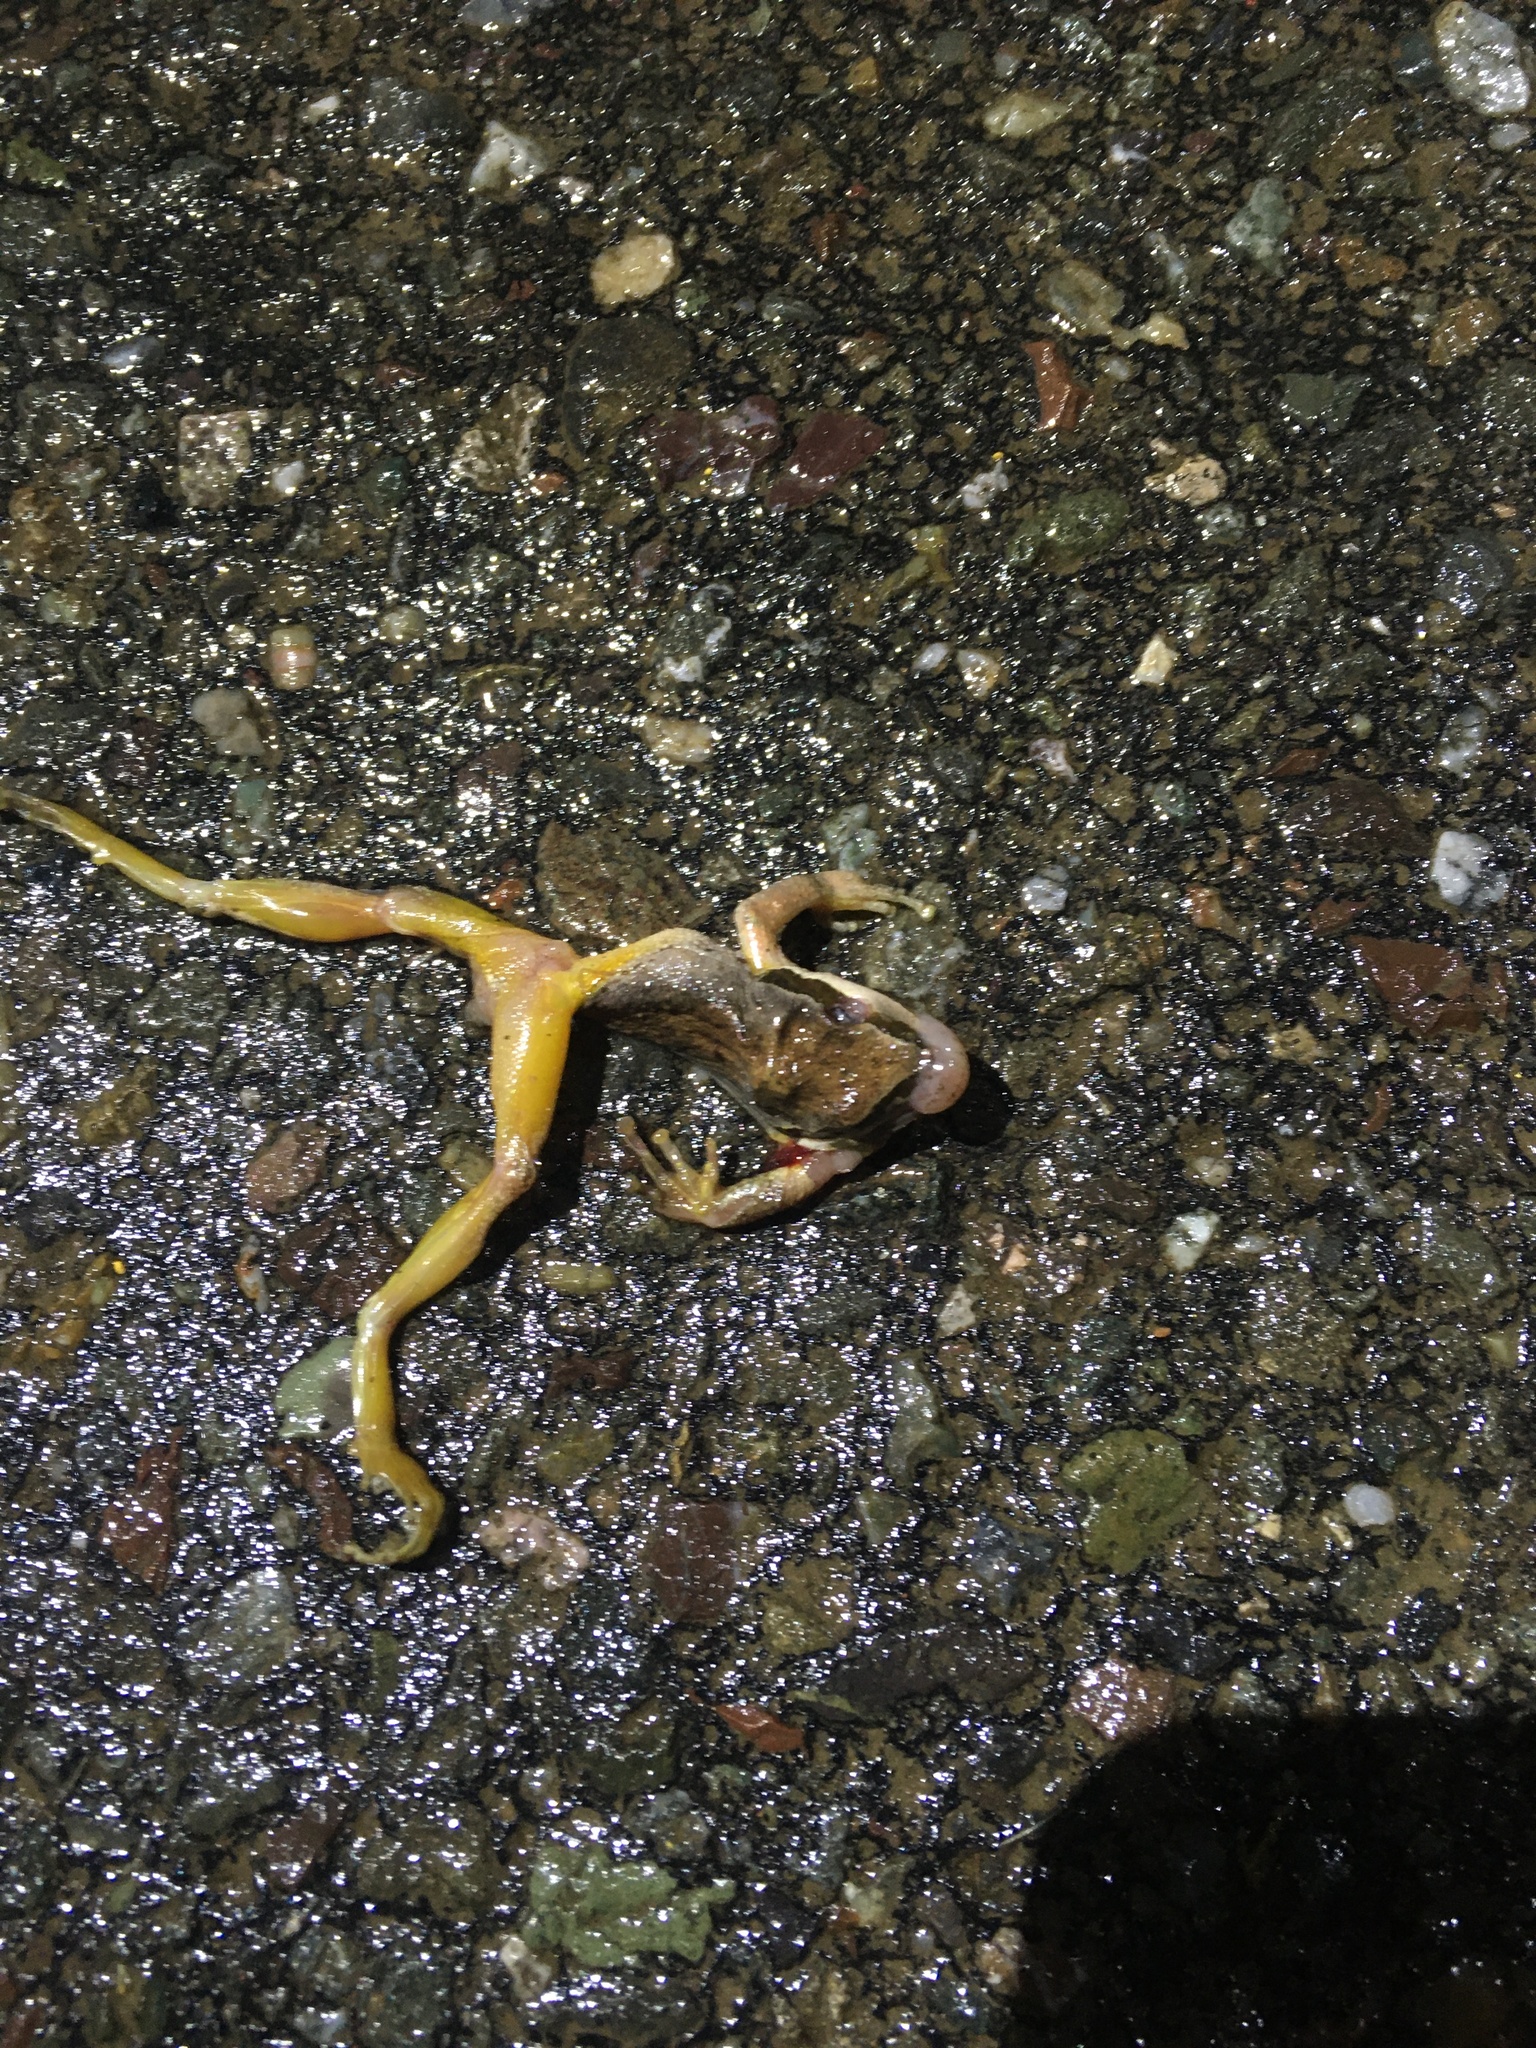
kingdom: Animalia
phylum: Chordata
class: Amphibia
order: Anura
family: Hylidae
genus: Pseudacris
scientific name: Pseudacris regilla
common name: Pacific chorus frog
